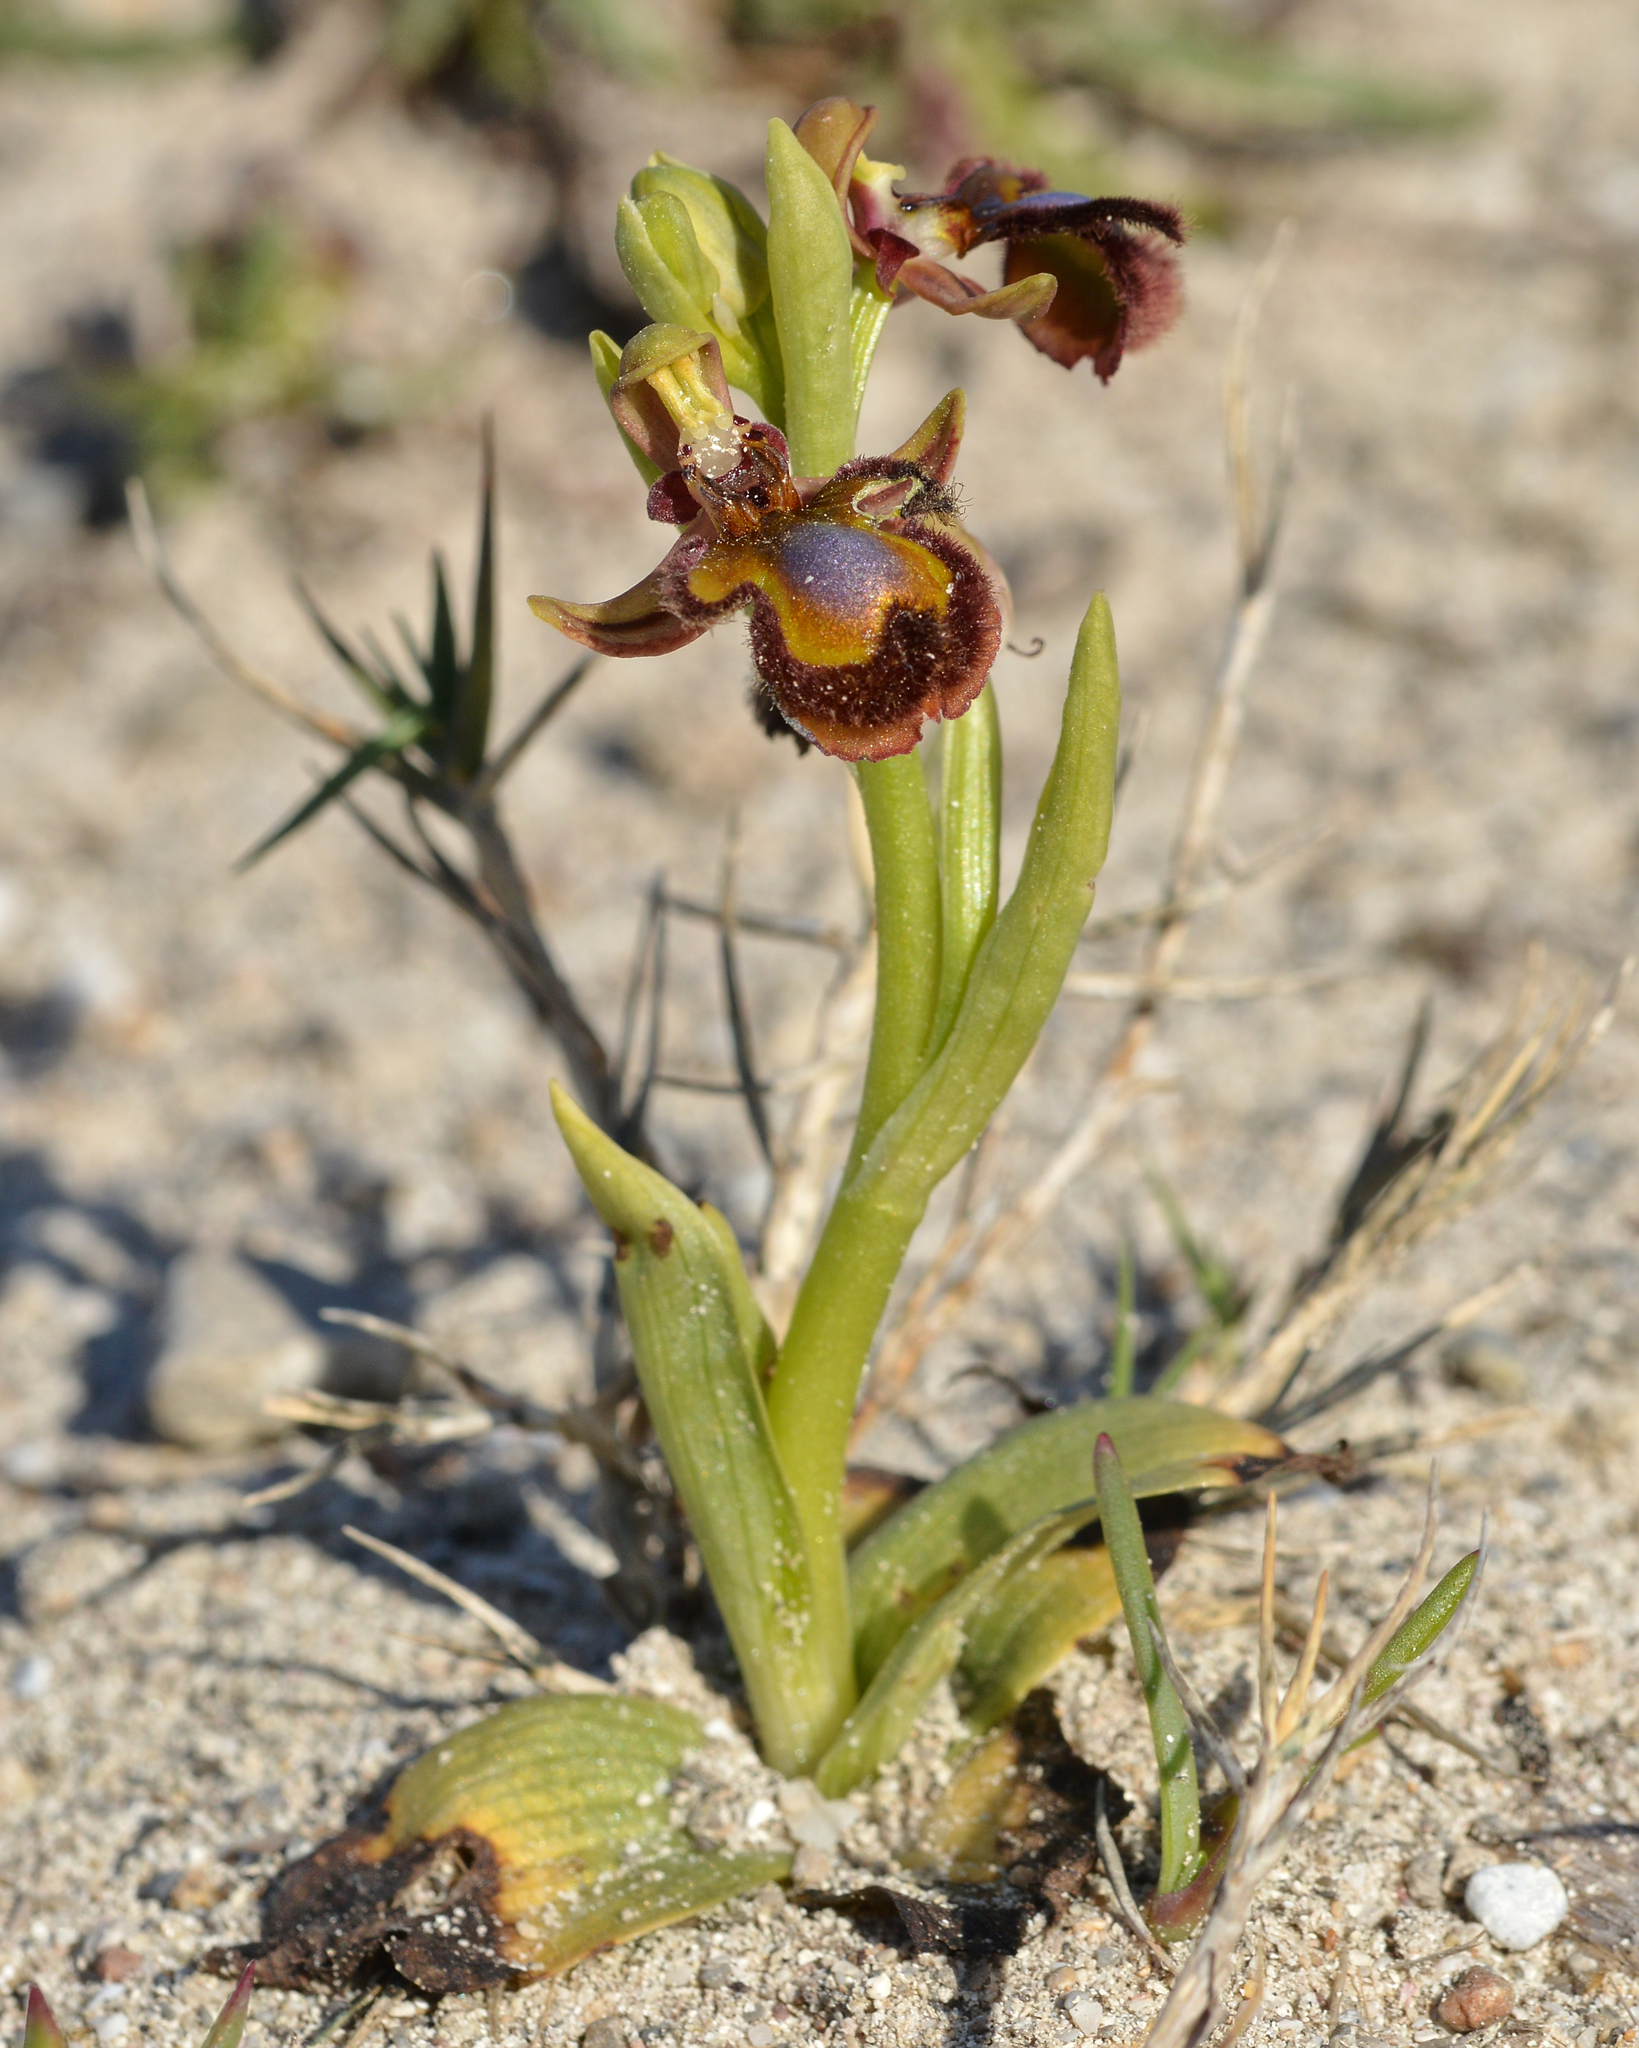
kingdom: Plantae
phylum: Tracheophyta
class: Liliopsida
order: Asparagales
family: Orchidaceae
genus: Ophrys
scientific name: Ophrys speculum
